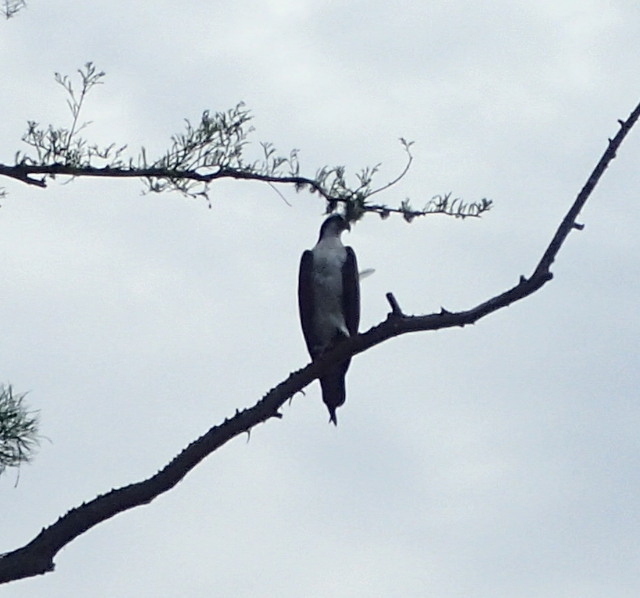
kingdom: Animalia
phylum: Chordata
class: Aves
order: Accipitriformes
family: Pandionidae
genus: Pandion
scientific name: Pandion haliaetus
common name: Osprey
